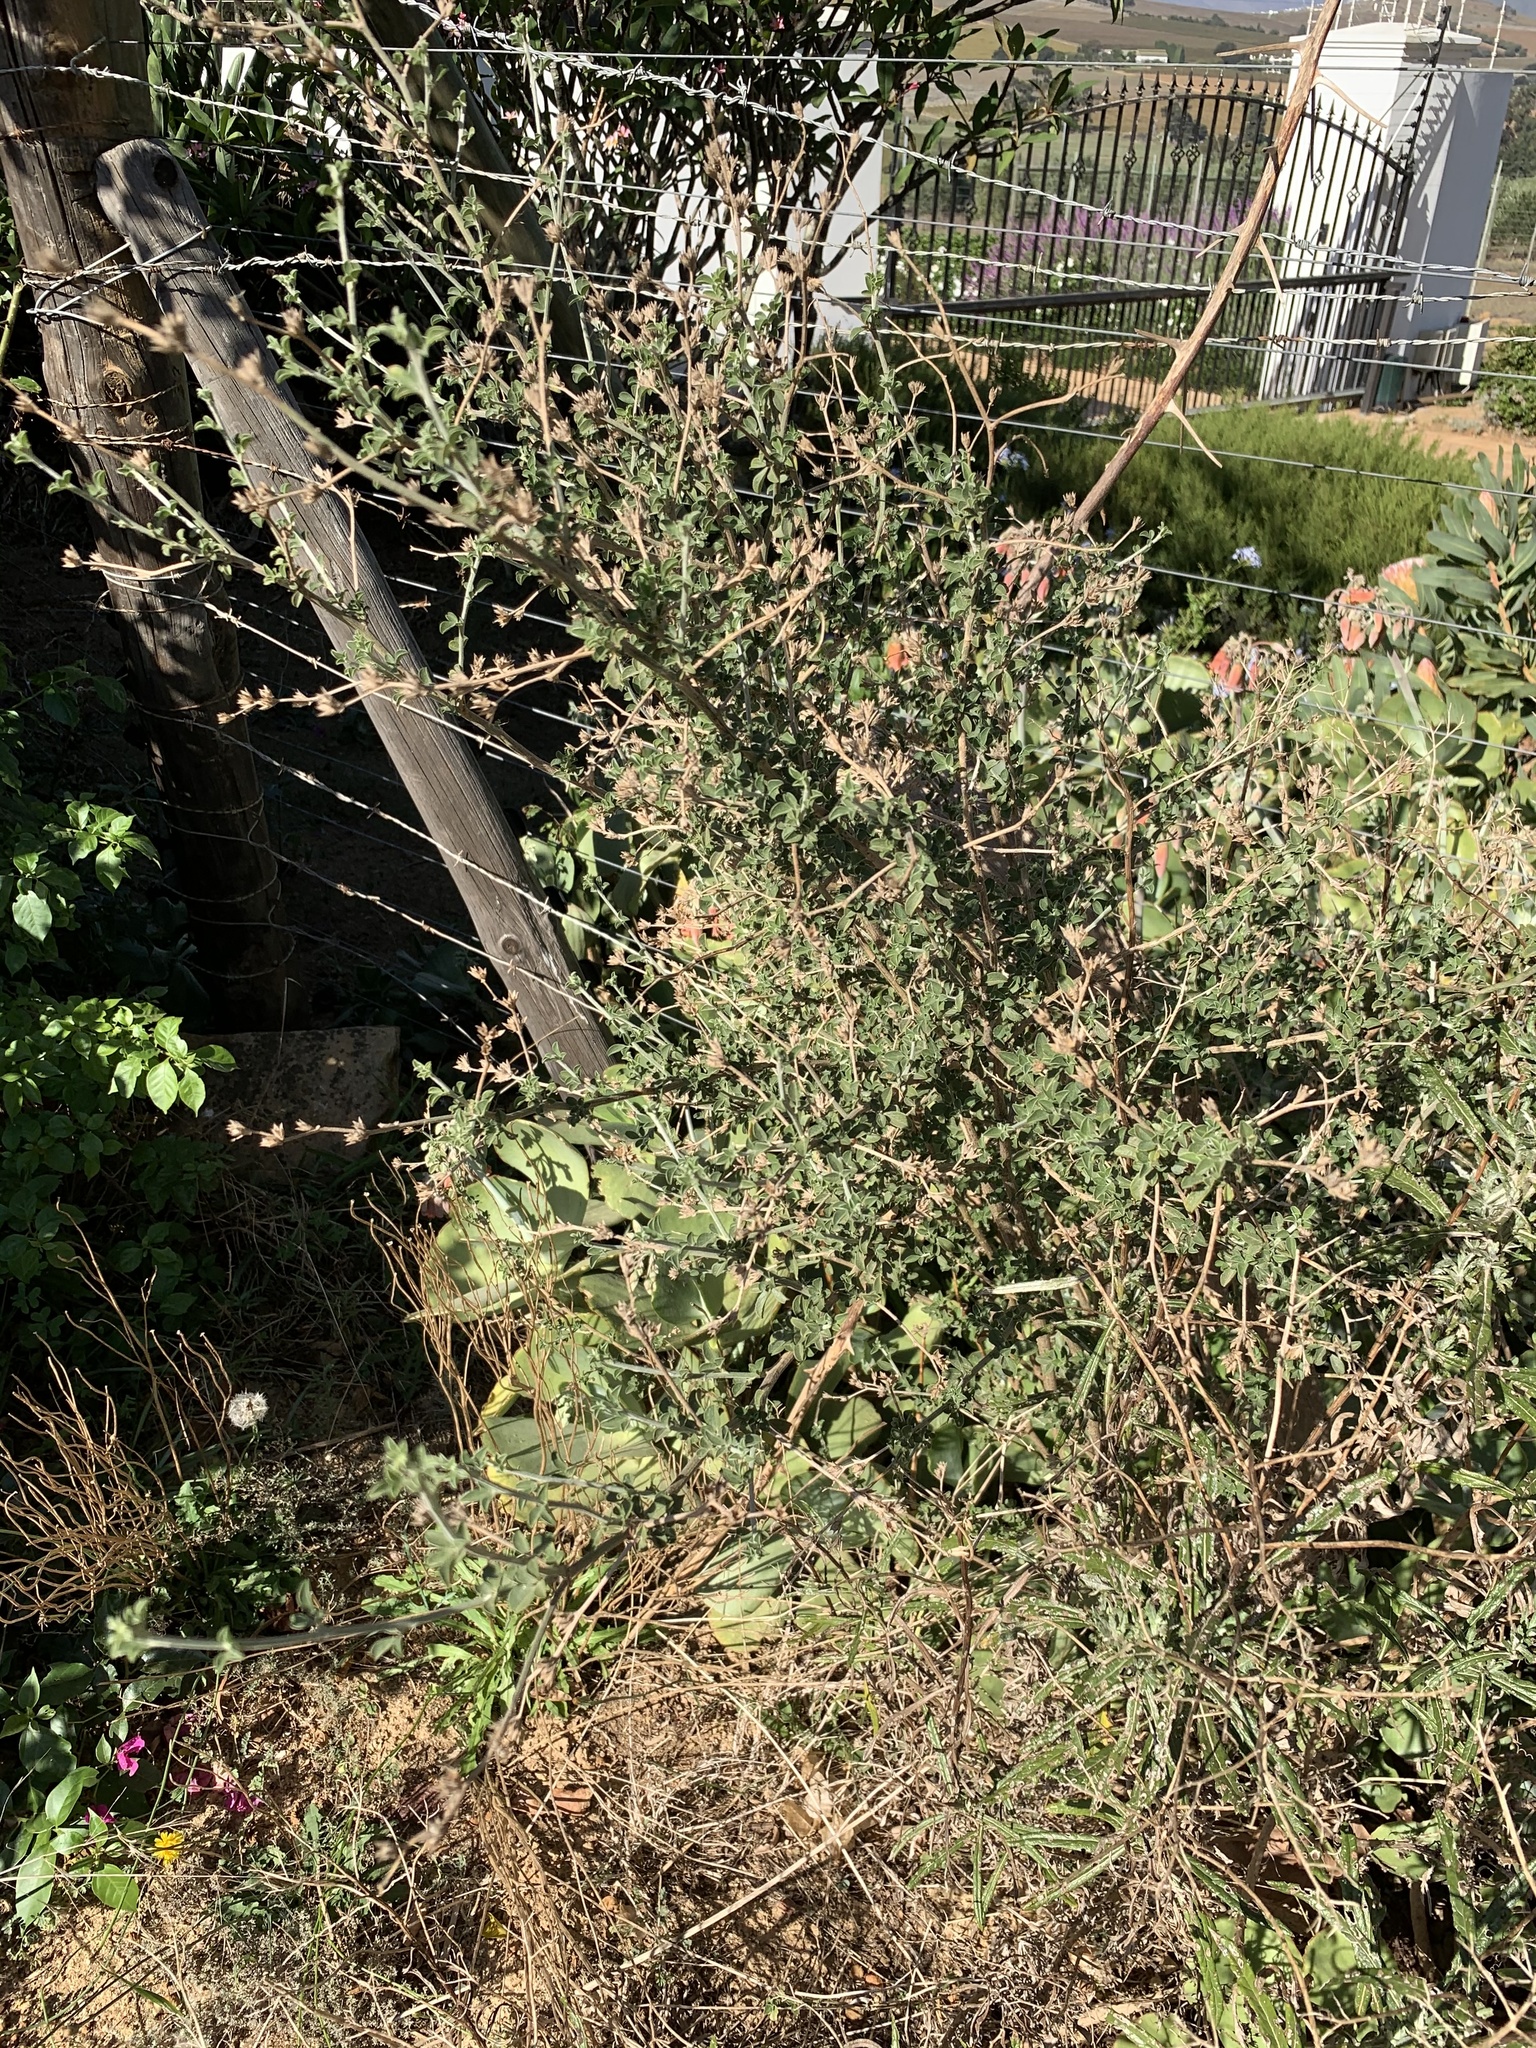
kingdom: Plantae
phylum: Tracheophyta
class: Magnoliopsida
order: Fabales
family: Fabaceae
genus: Psoralea
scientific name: Psoralea hirta
